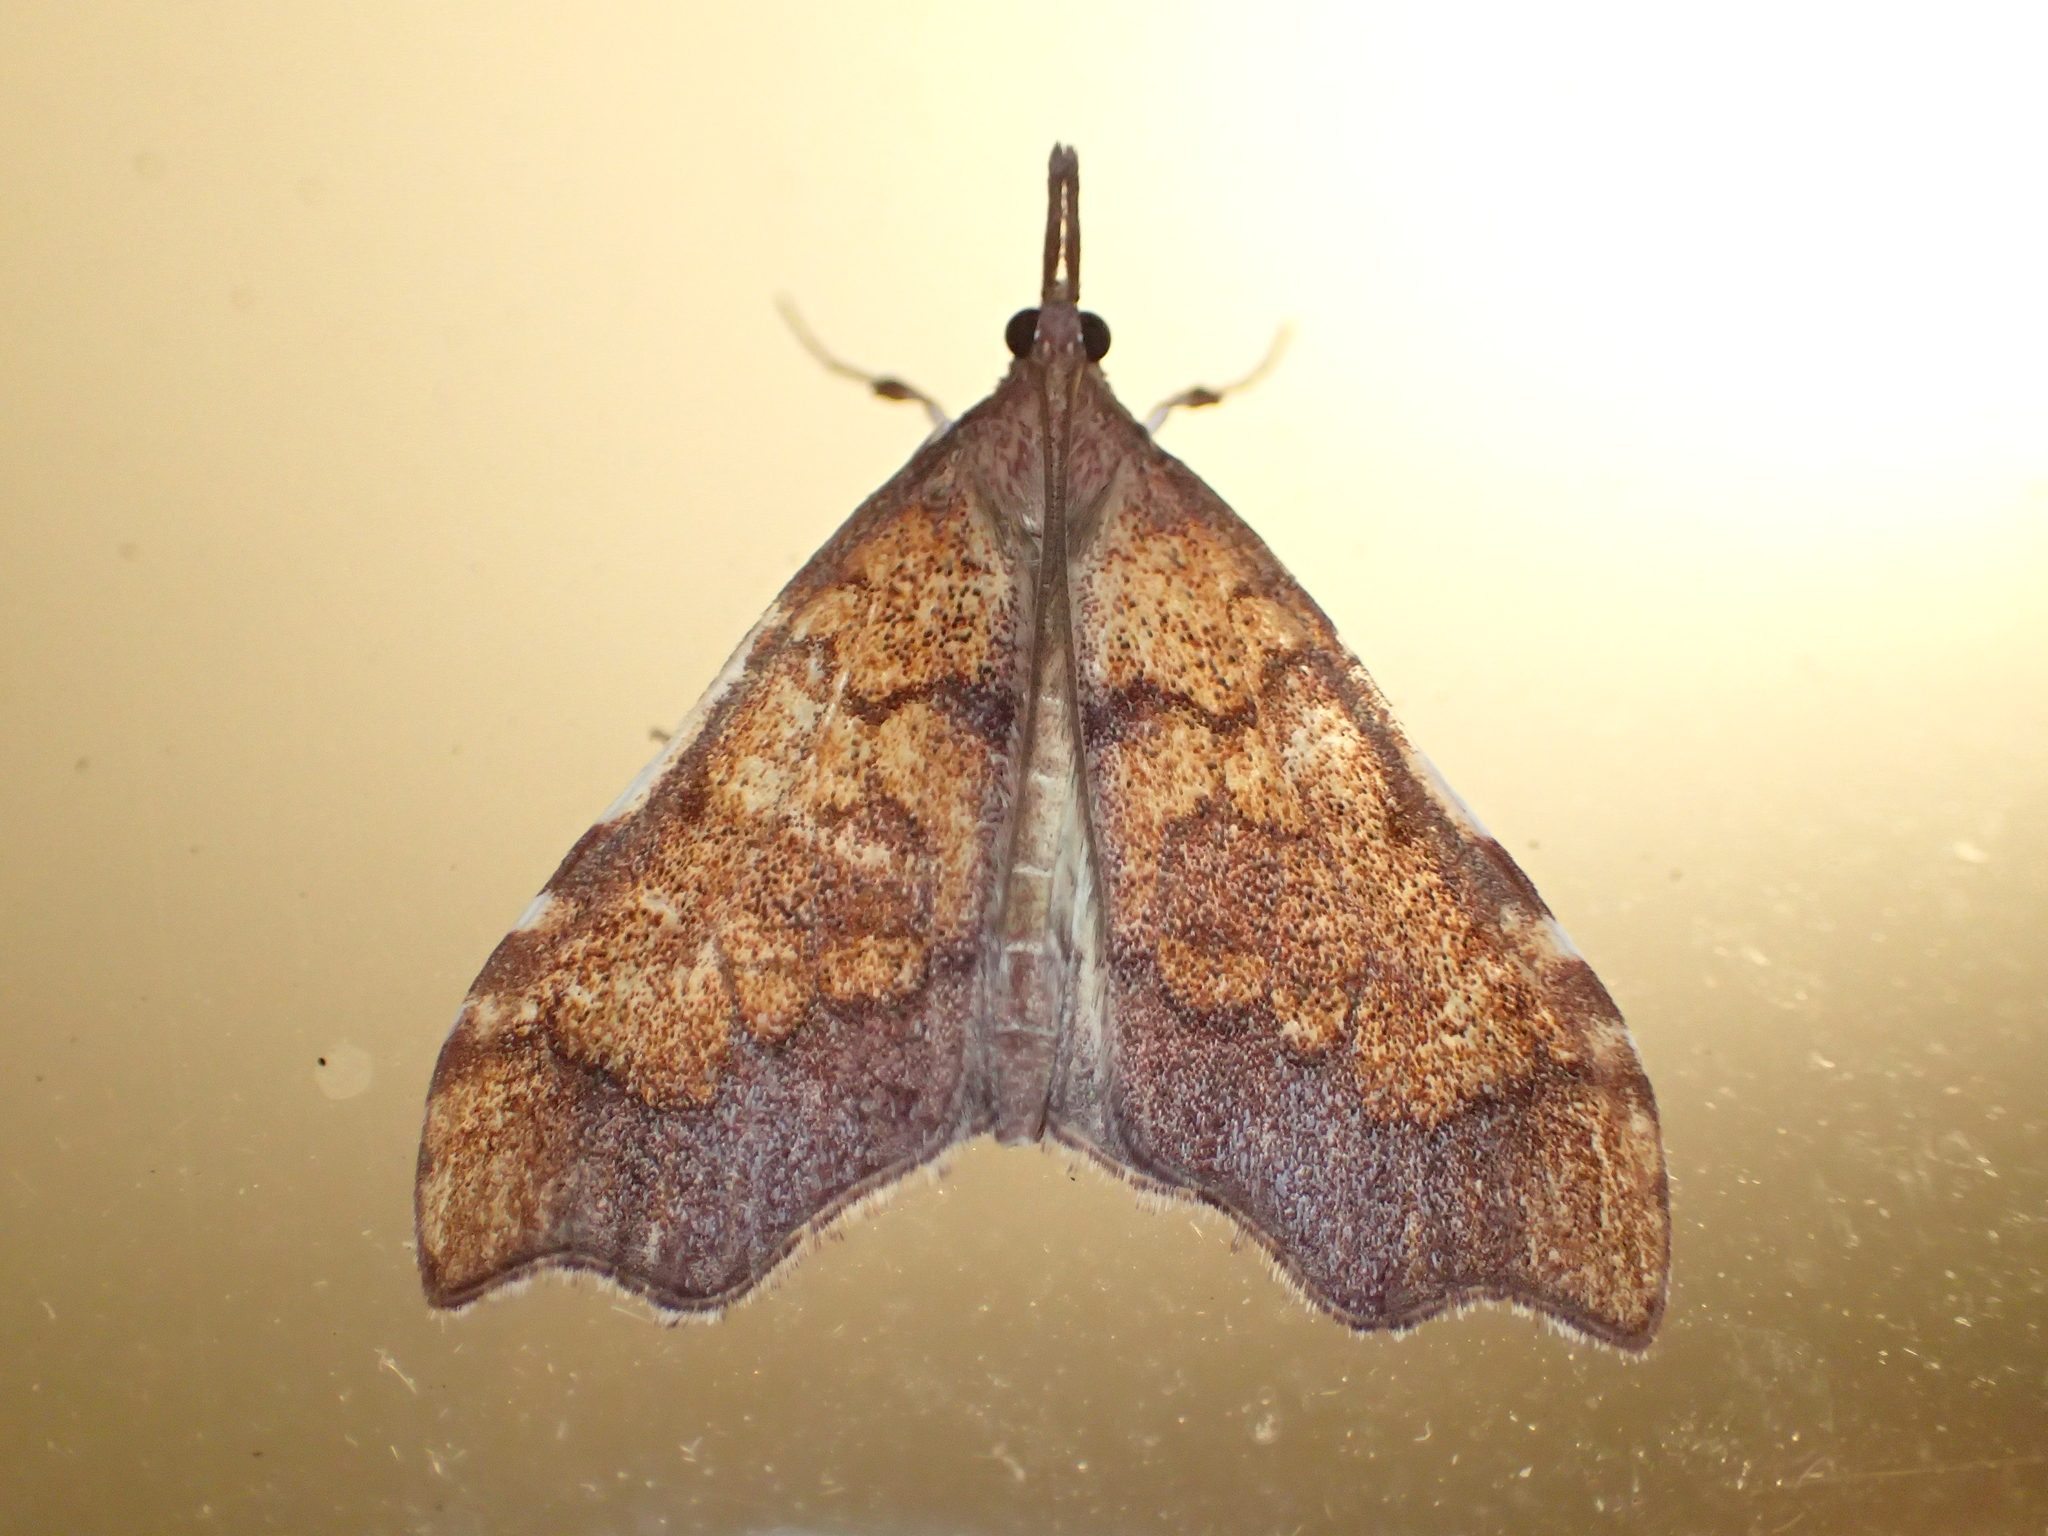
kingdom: Animalia
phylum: Arthropoda
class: Insecta
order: Lepidoptera
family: Crambidae
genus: Deana
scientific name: Deana hybreasalis
